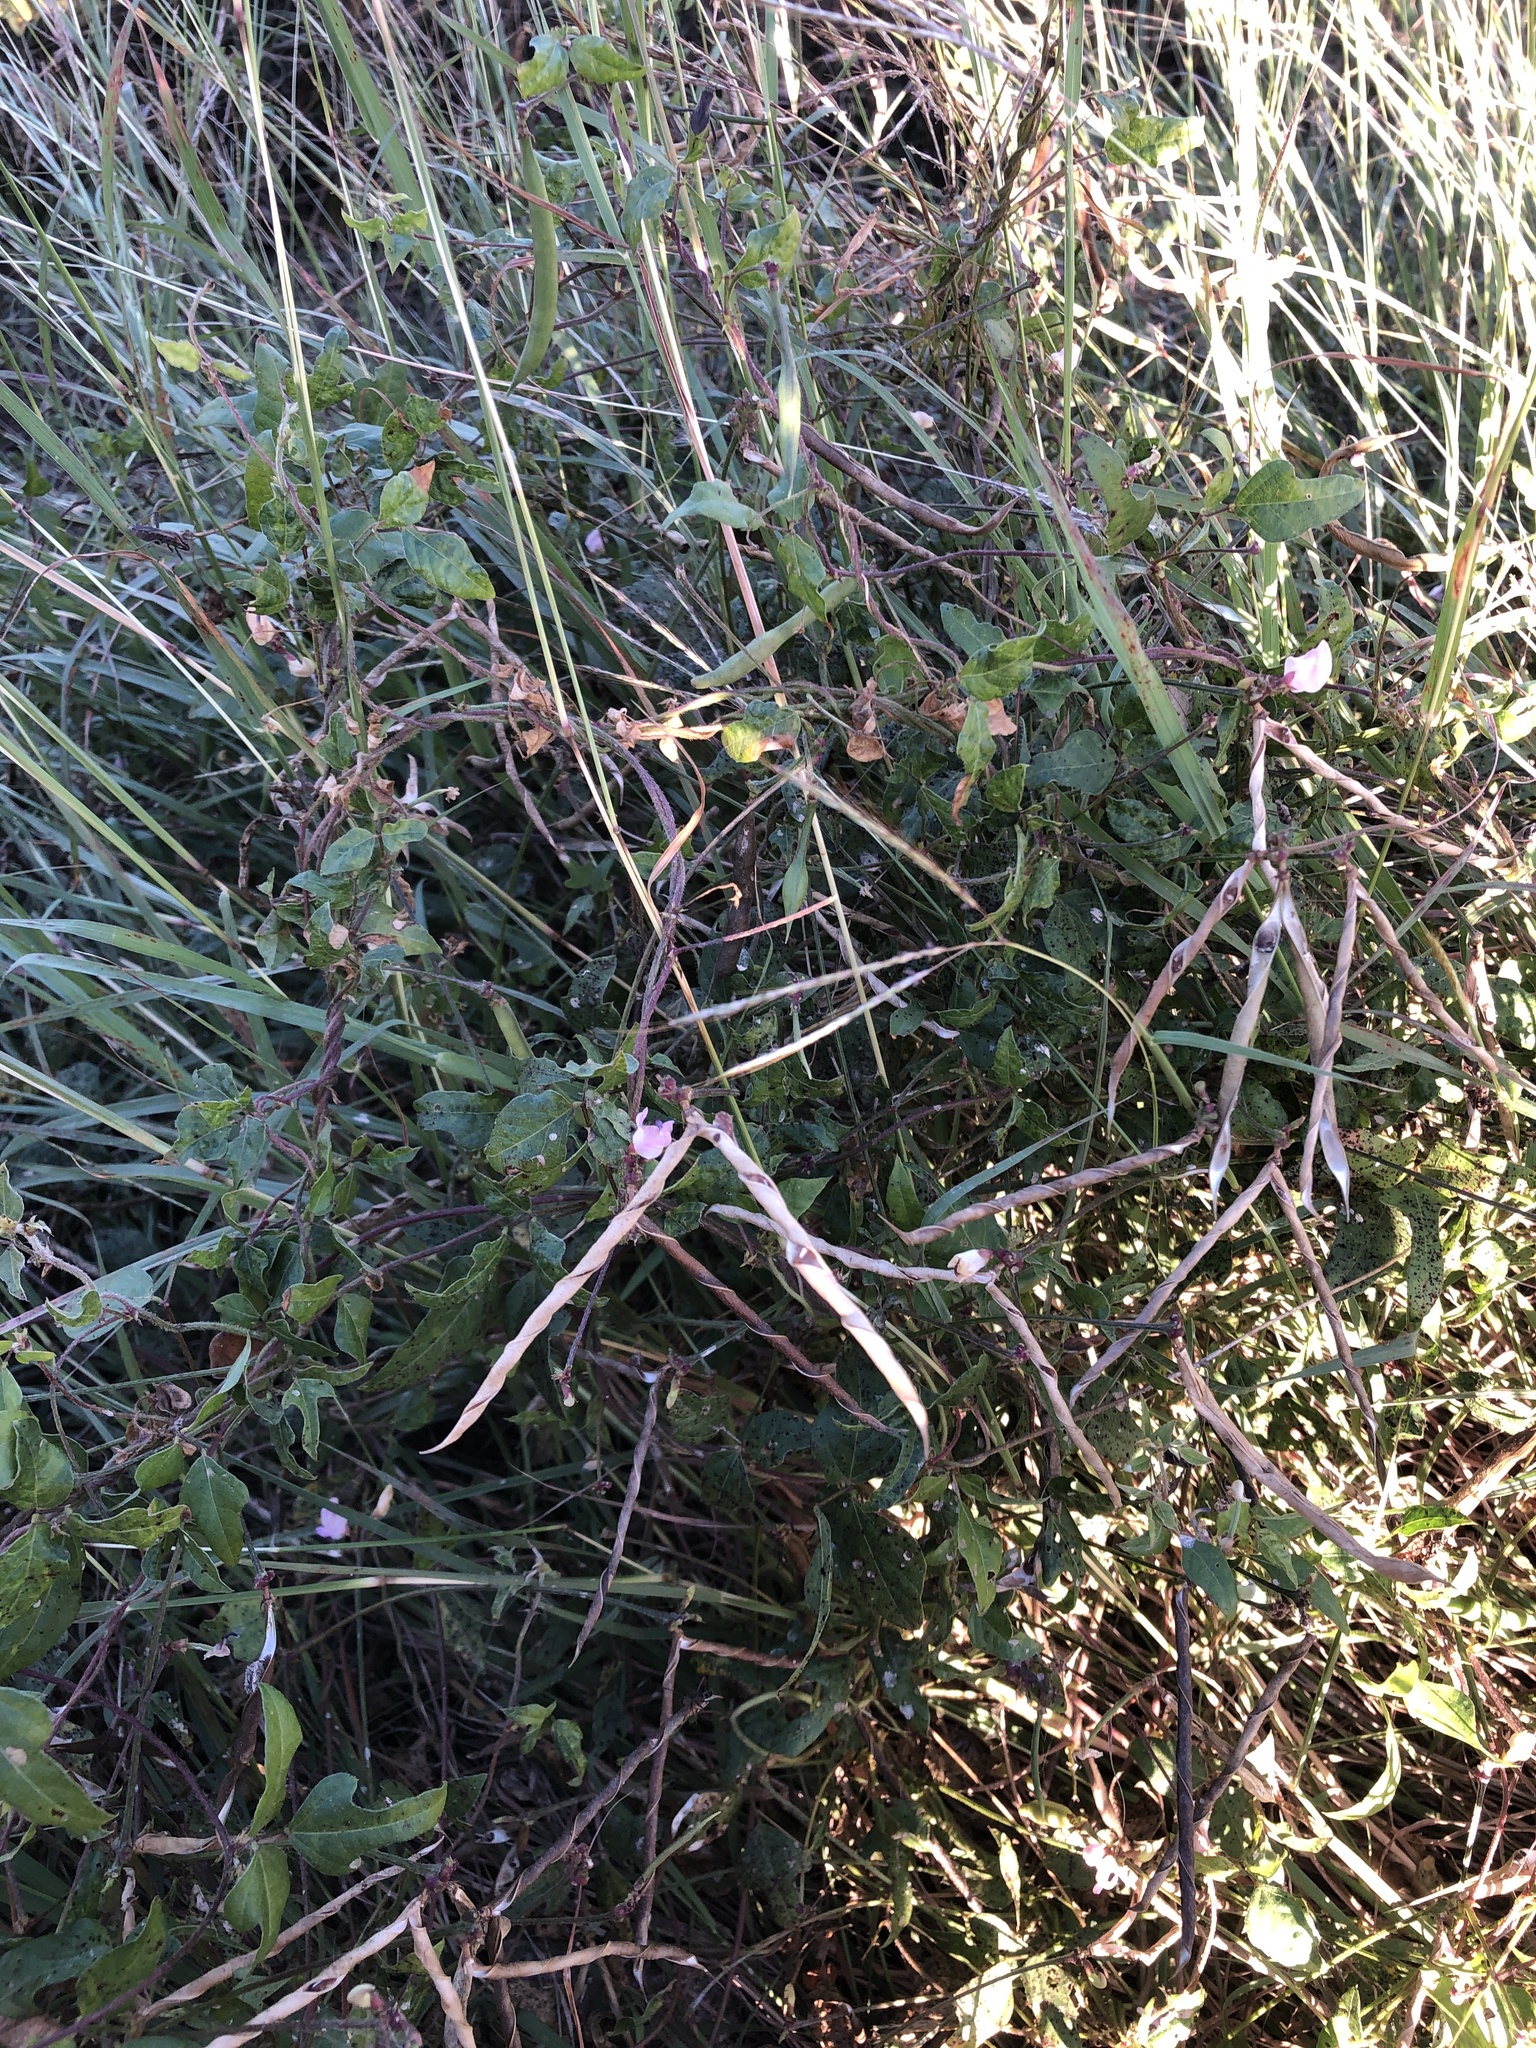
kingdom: Plantae
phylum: Tracheophyta
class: Magnoliopsida
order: Fabales
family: Fabaceae
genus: Strophostyles
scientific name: Strophostyles helvola
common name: Trailing wild bean
